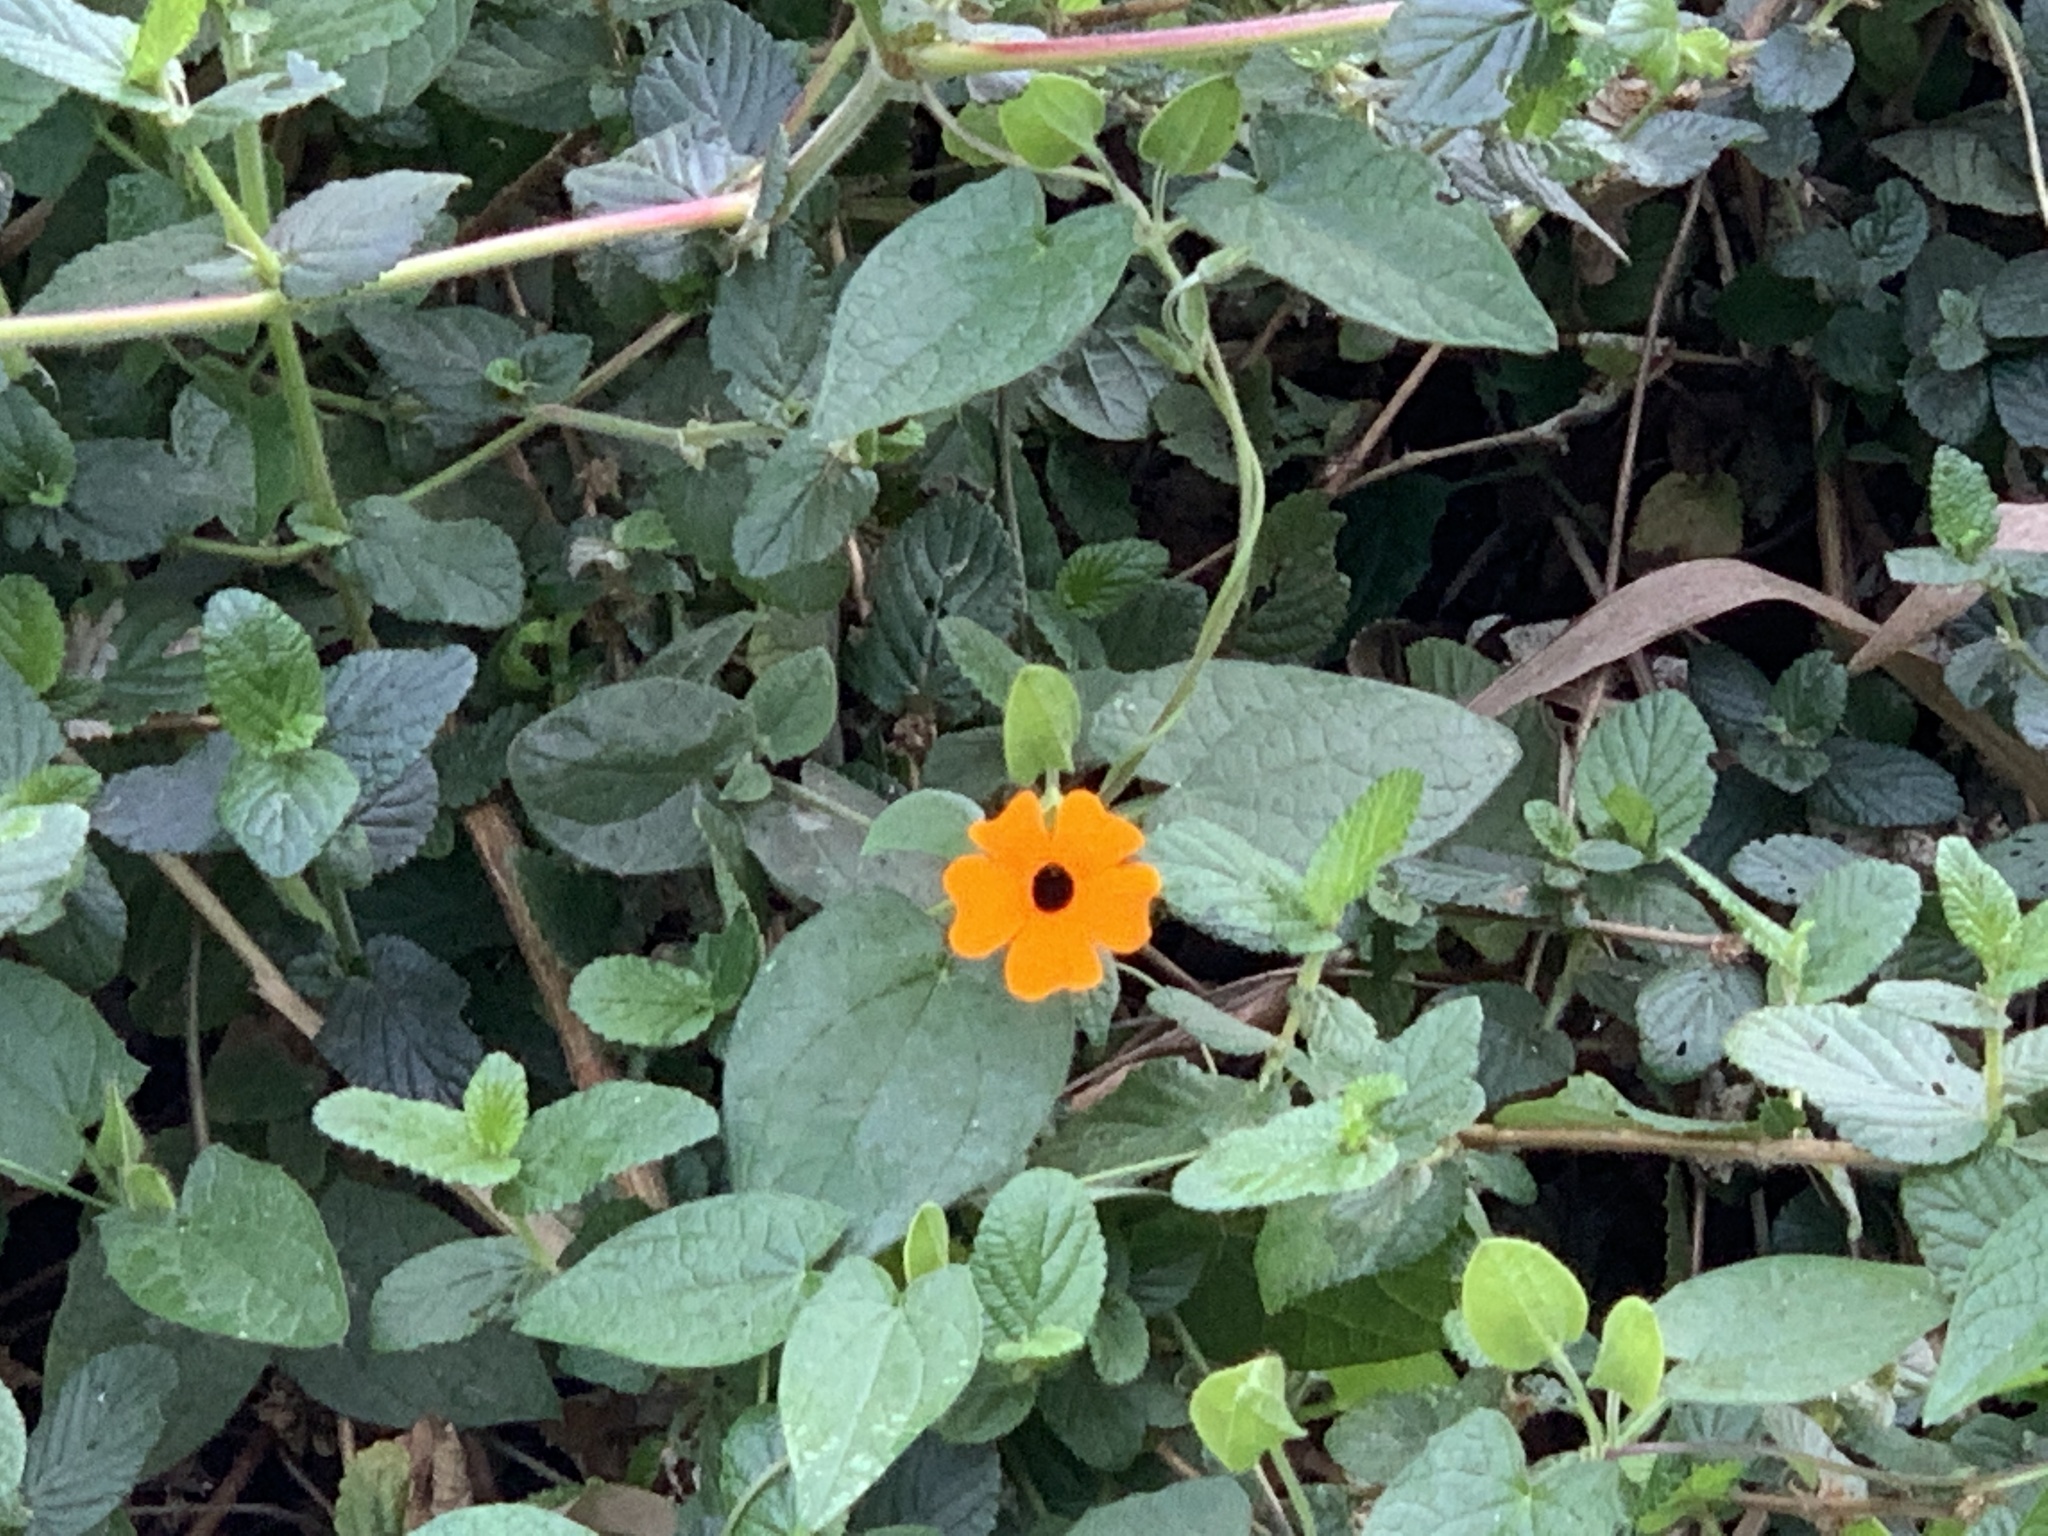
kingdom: Plantae
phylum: Tracheophyta
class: Magnoliopsida
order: Lamiales
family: Acanthaceae
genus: Thunbergia
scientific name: Thunbergia alata
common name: Blackeyed susan vine
